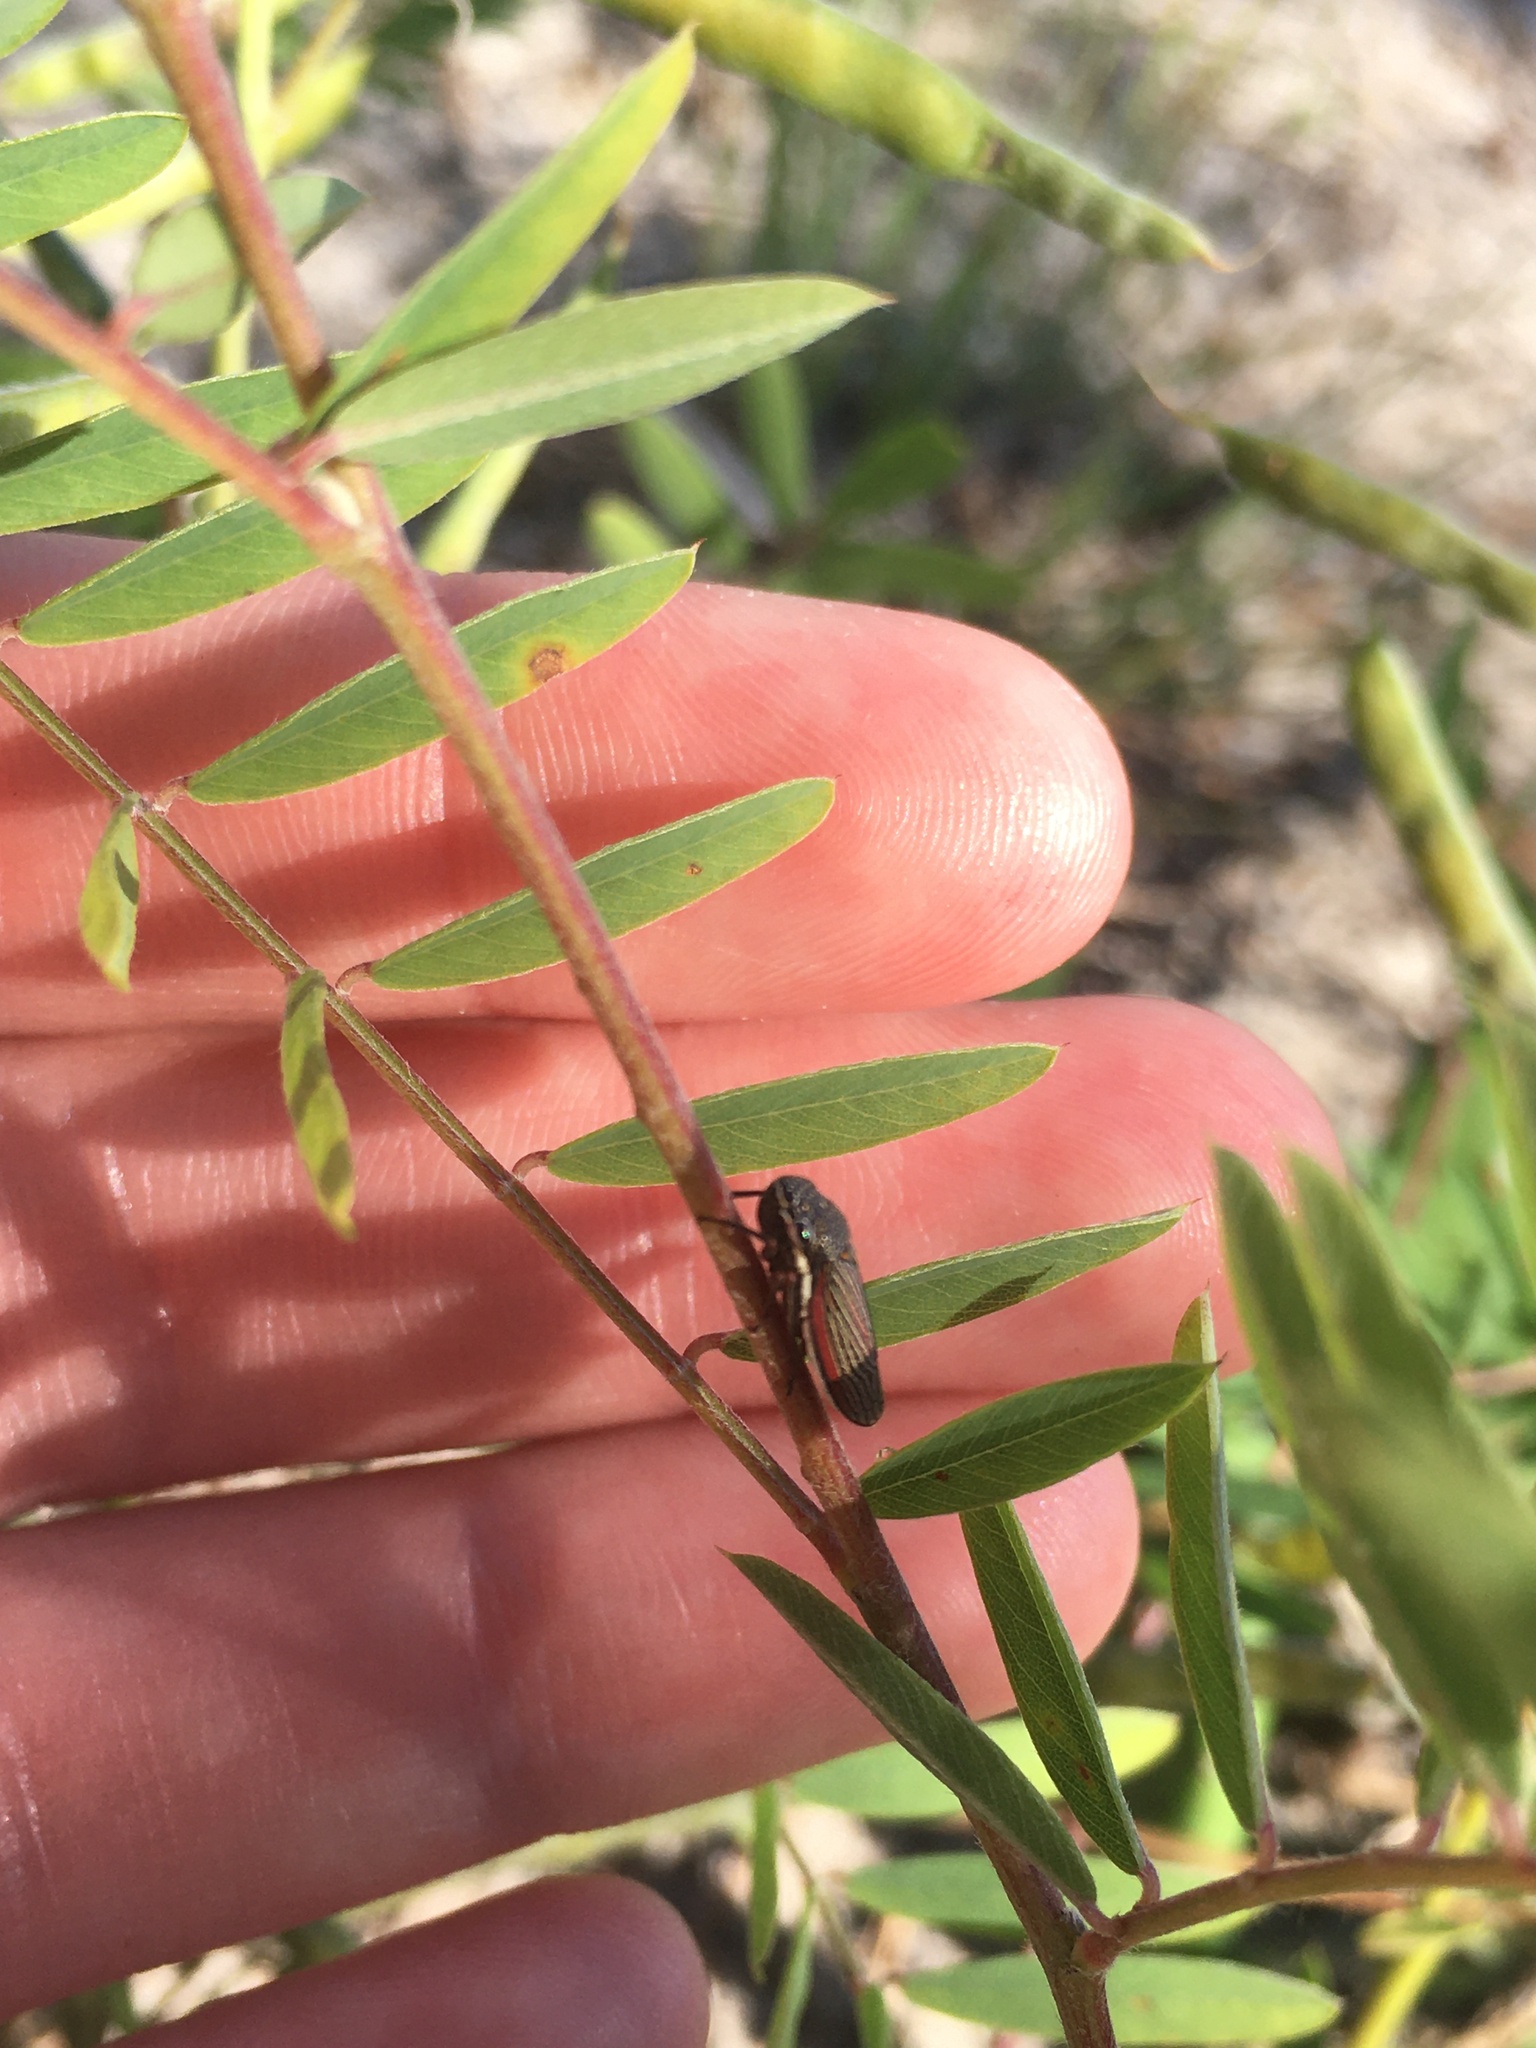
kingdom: Animalia
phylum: Arthropoda
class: Insecta
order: Hemiptera
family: Cicadellidae
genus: Cuerna
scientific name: Cuerna costalis
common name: Lateral-lined sharpshooter
